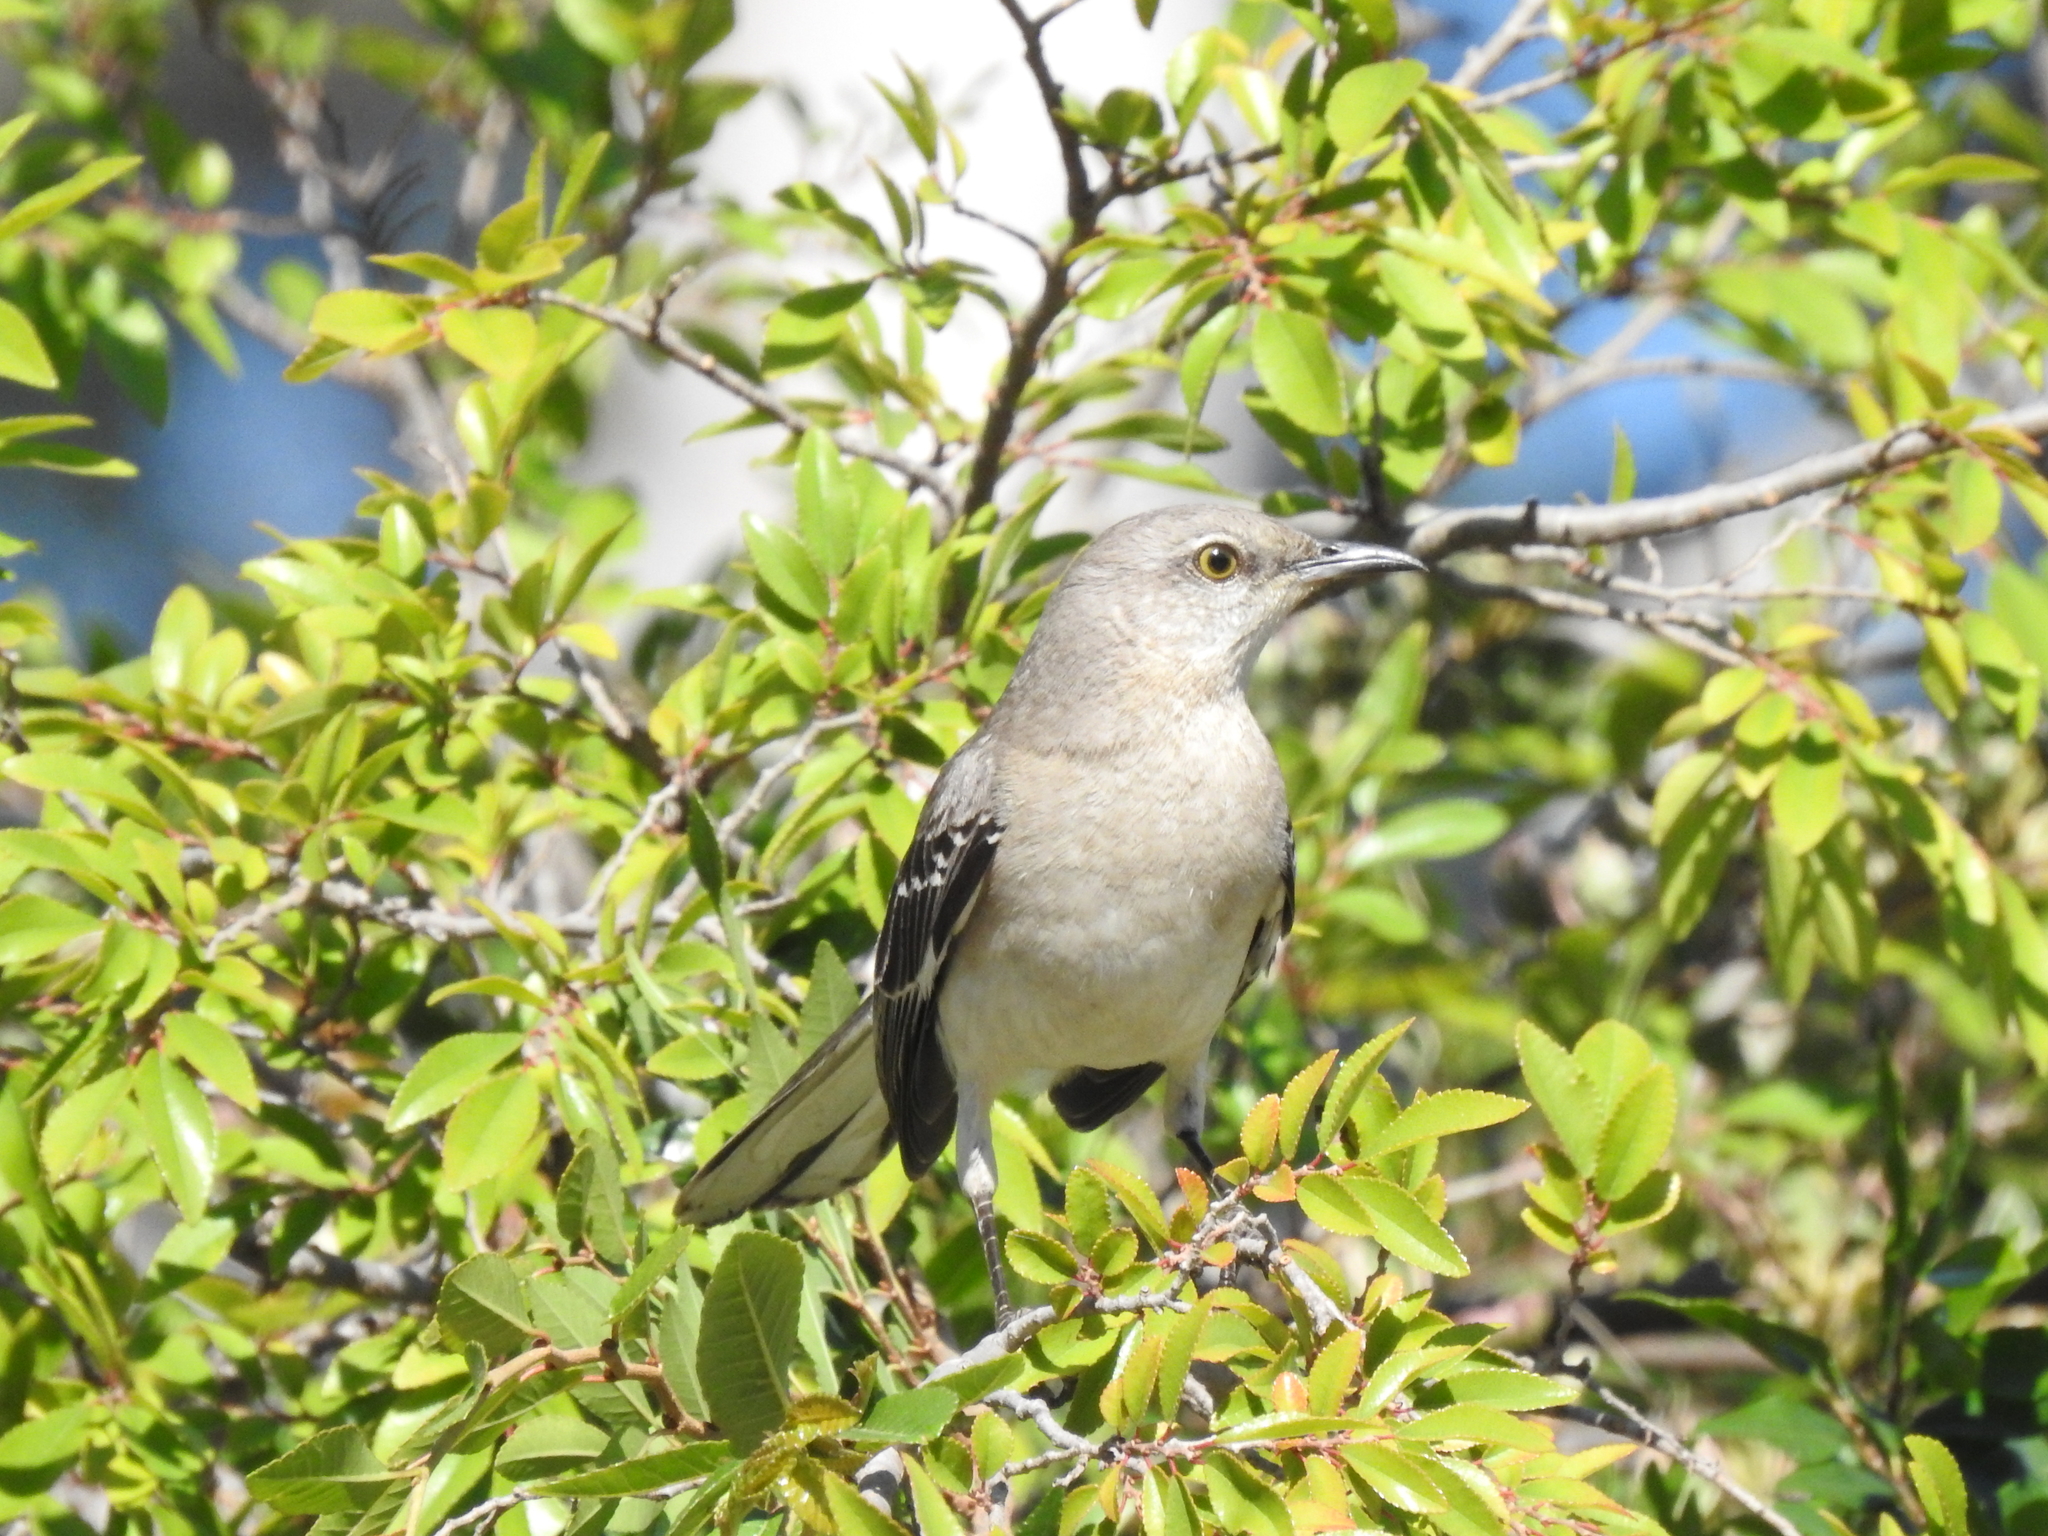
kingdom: Animalia
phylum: Chordata
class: Aves
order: Passeriformes
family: Mimidae
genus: Mimus
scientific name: Mimus polyglottos
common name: Northern mockingbird
